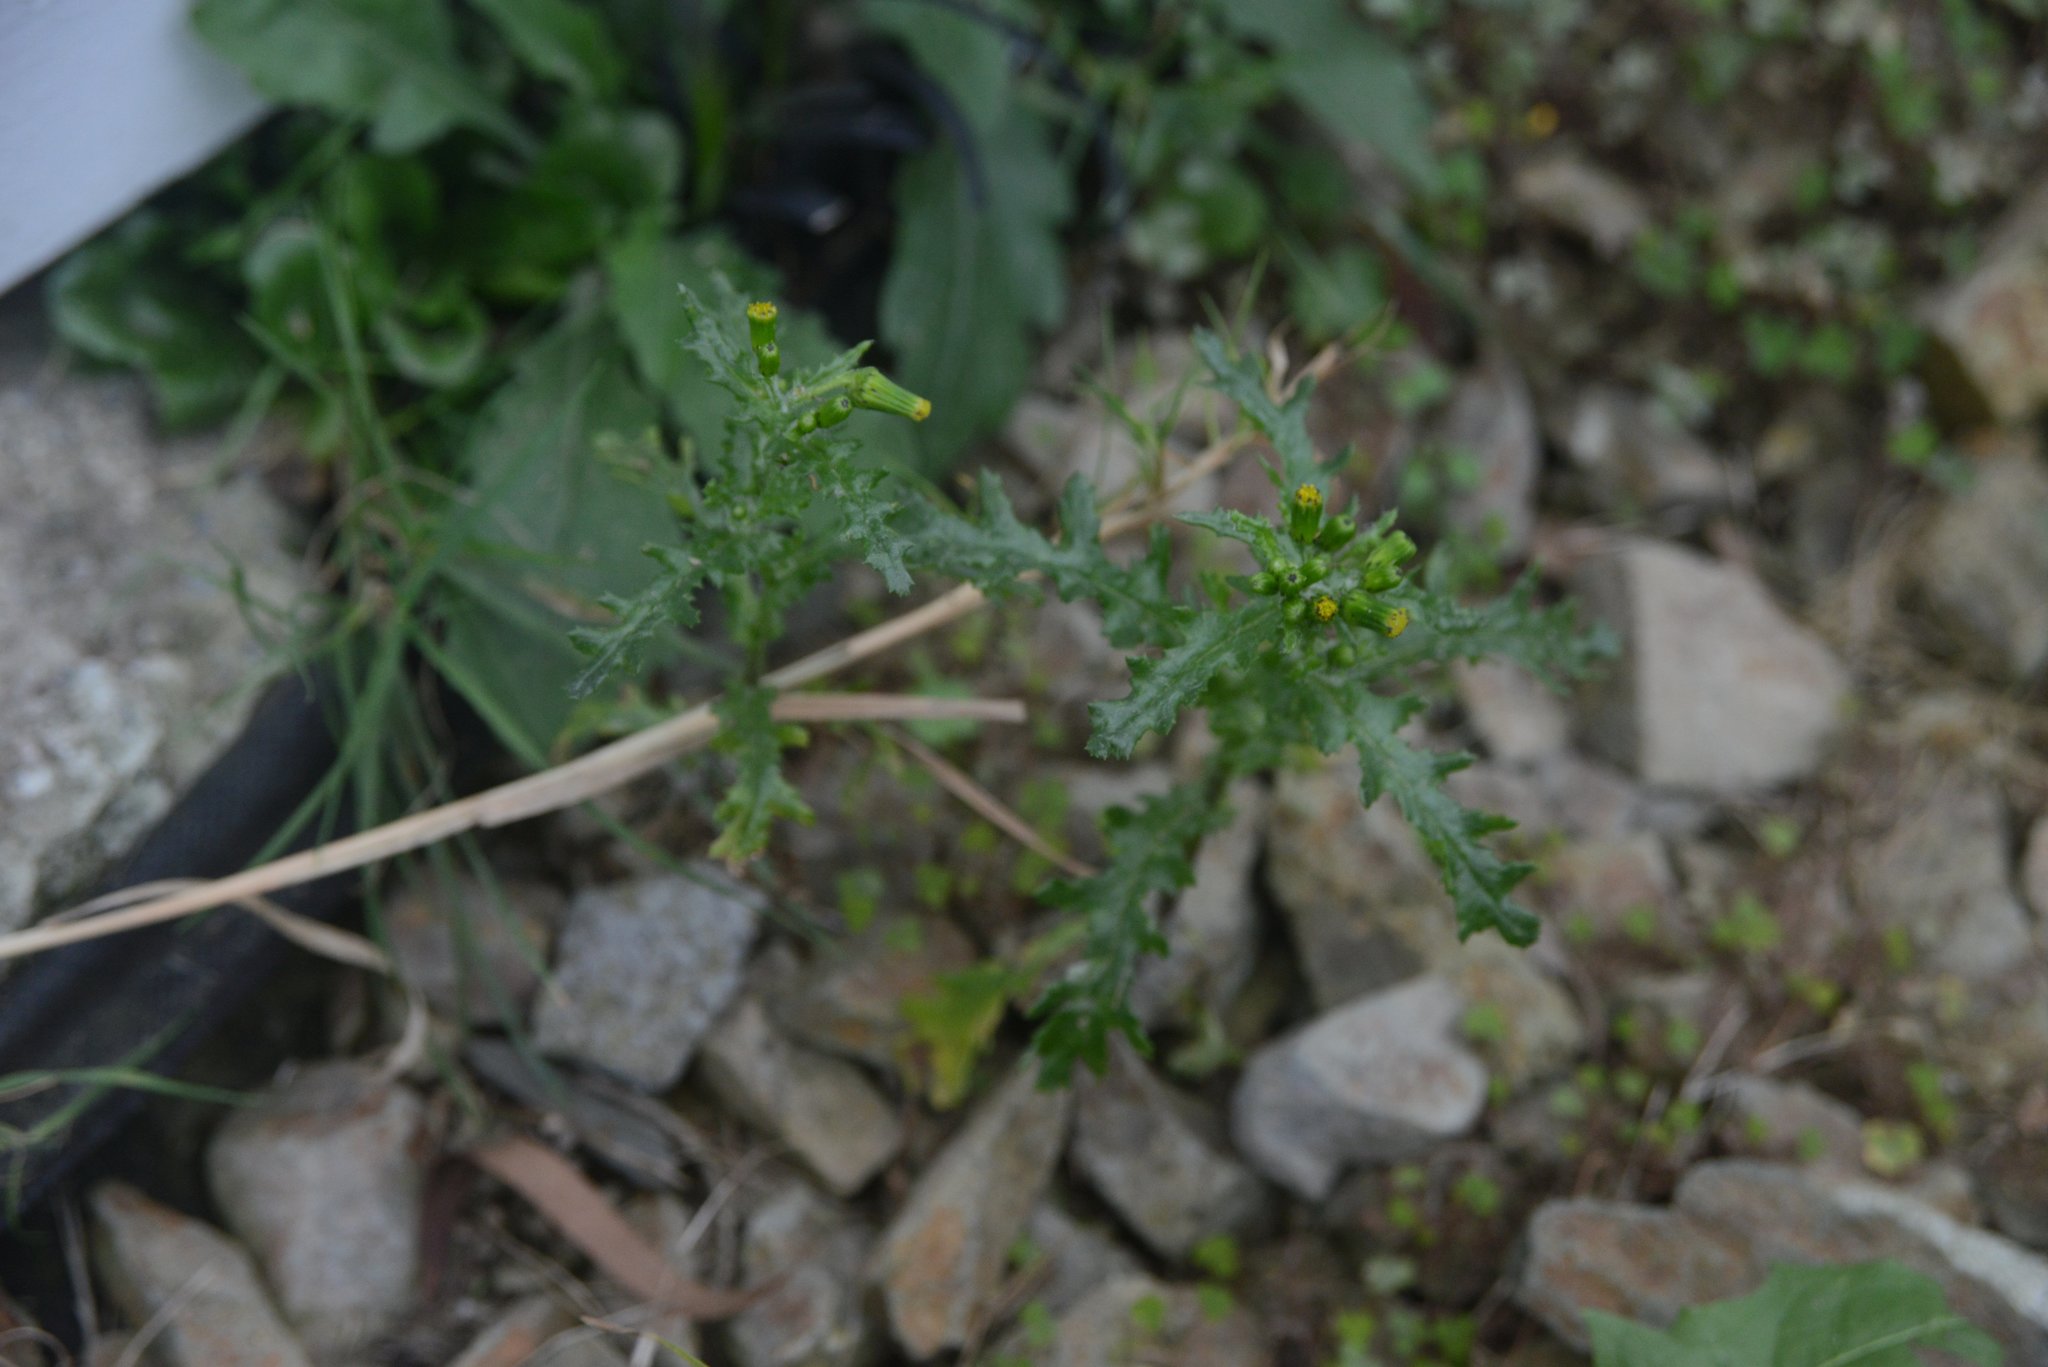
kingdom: Plantae
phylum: Tracheophyta
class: Magnoliopsida
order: Asterales
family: Asteraceae
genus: Senecio
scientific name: Senecio vulgaris
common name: Old-man-in-the-spring
